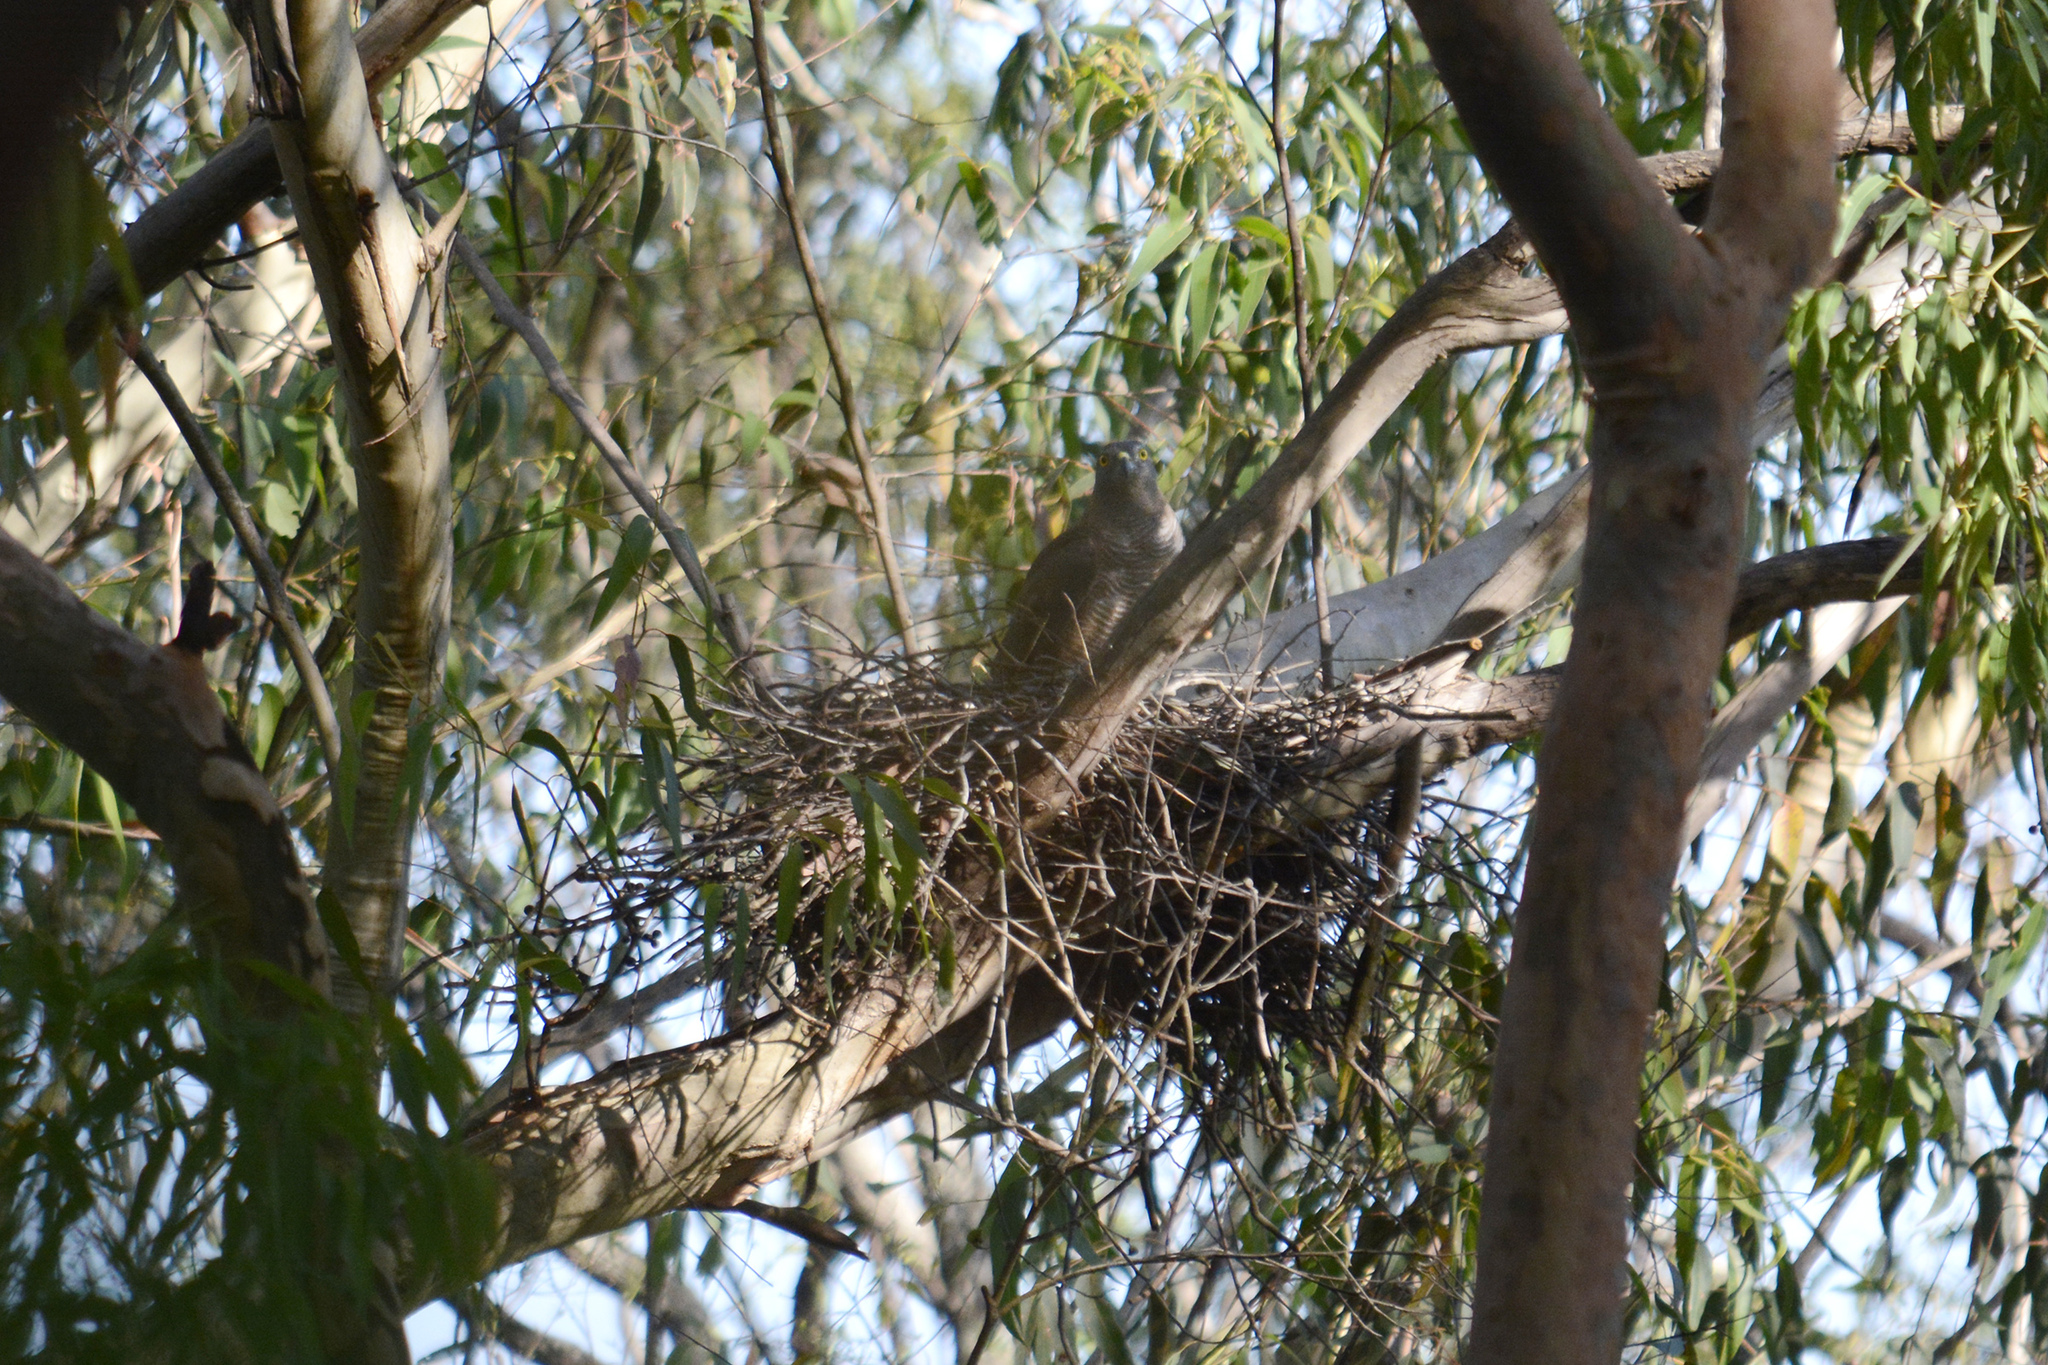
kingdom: Animalia
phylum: Chordata
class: Aves
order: Accipitriformes
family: Accipitridae
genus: Accipiter
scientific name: Accipiter fasciatus
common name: Brown goshawk
